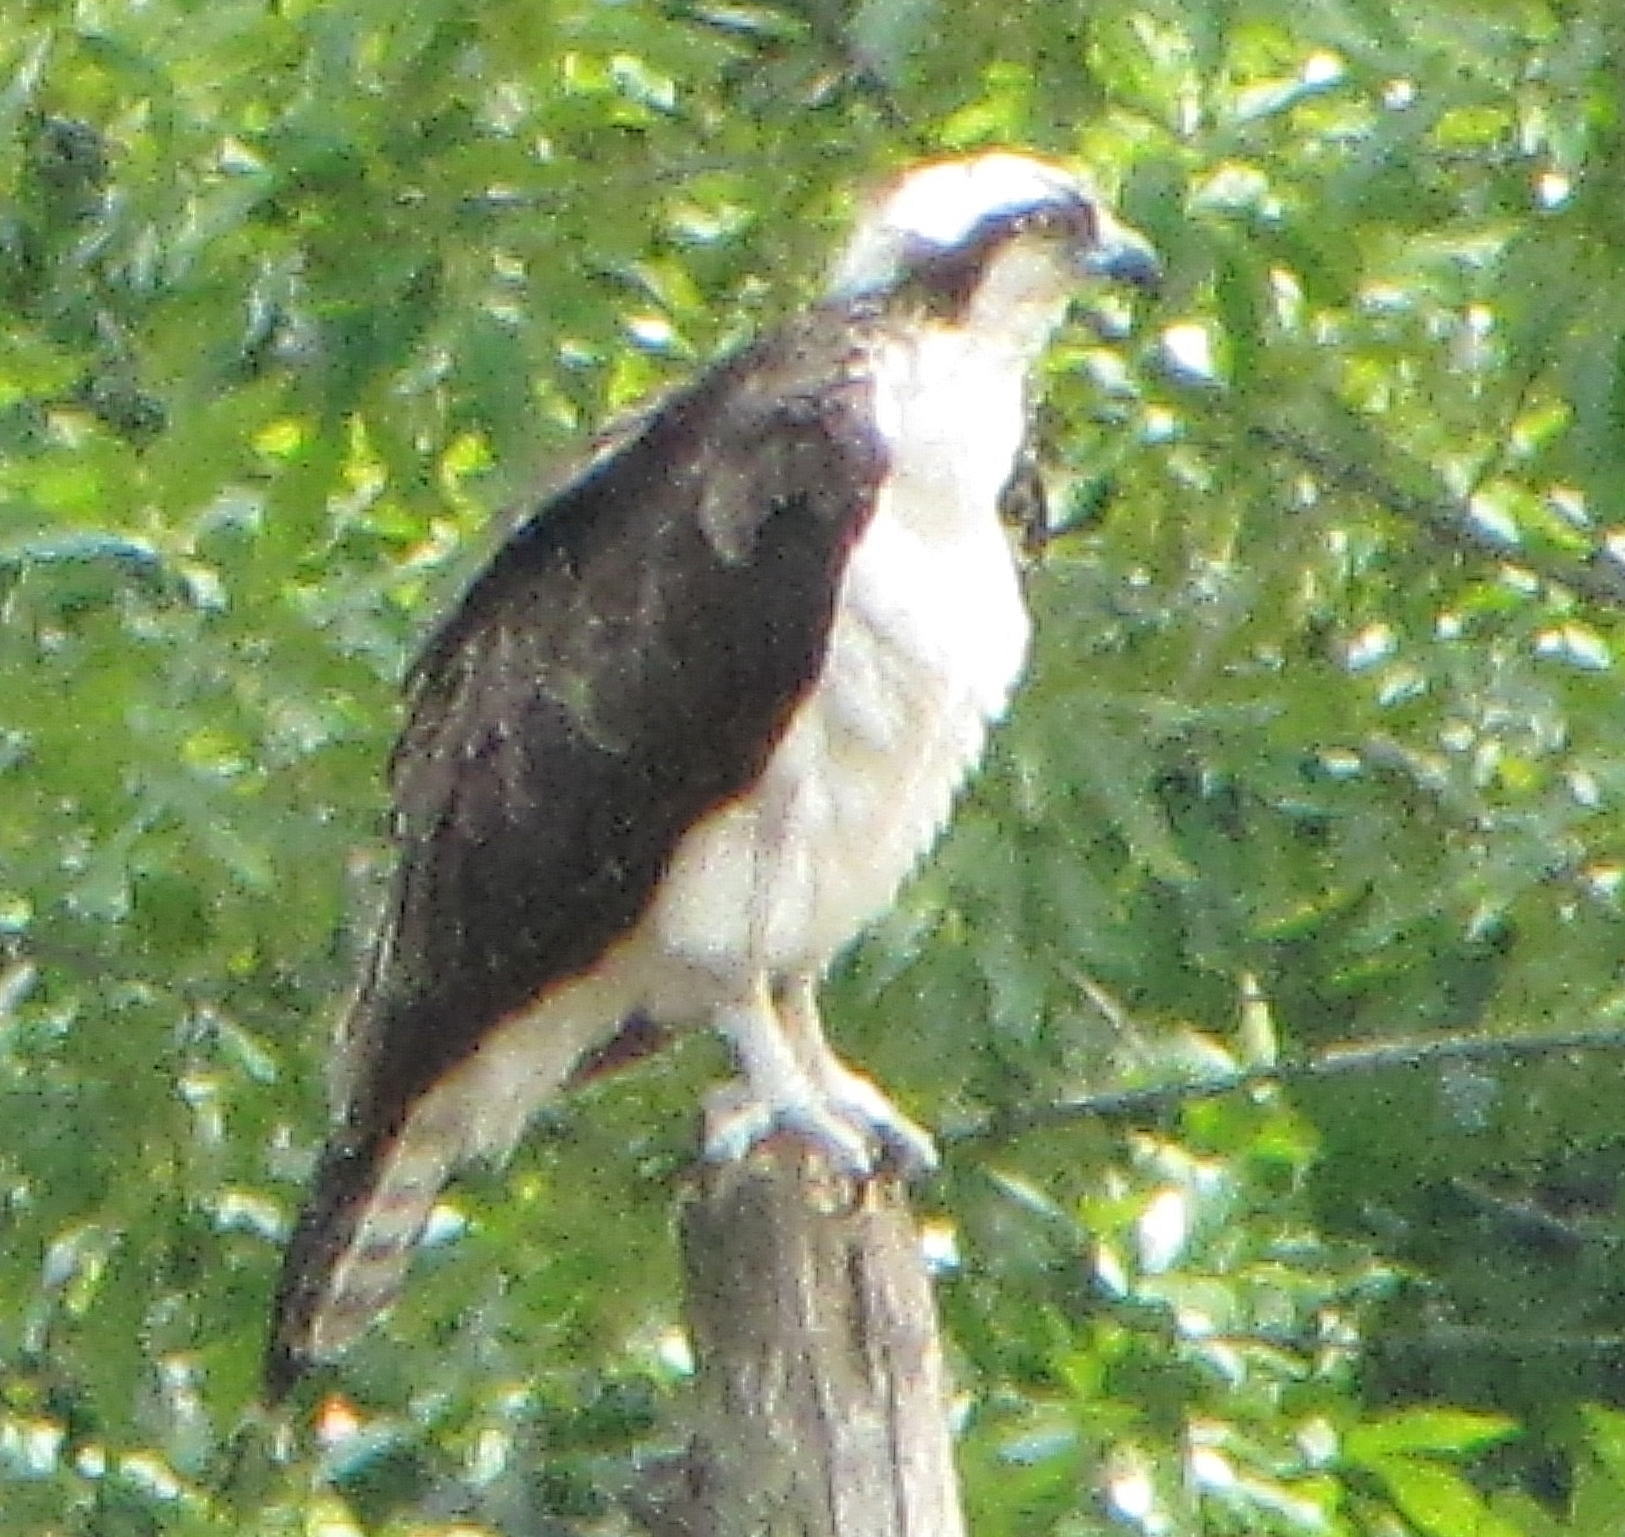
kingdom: Animalia
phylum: Chordata
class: Aves
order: Accipitriformes
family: Pandionidae
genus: Pandion
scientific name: Pandion haliaetus
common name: Osprey
